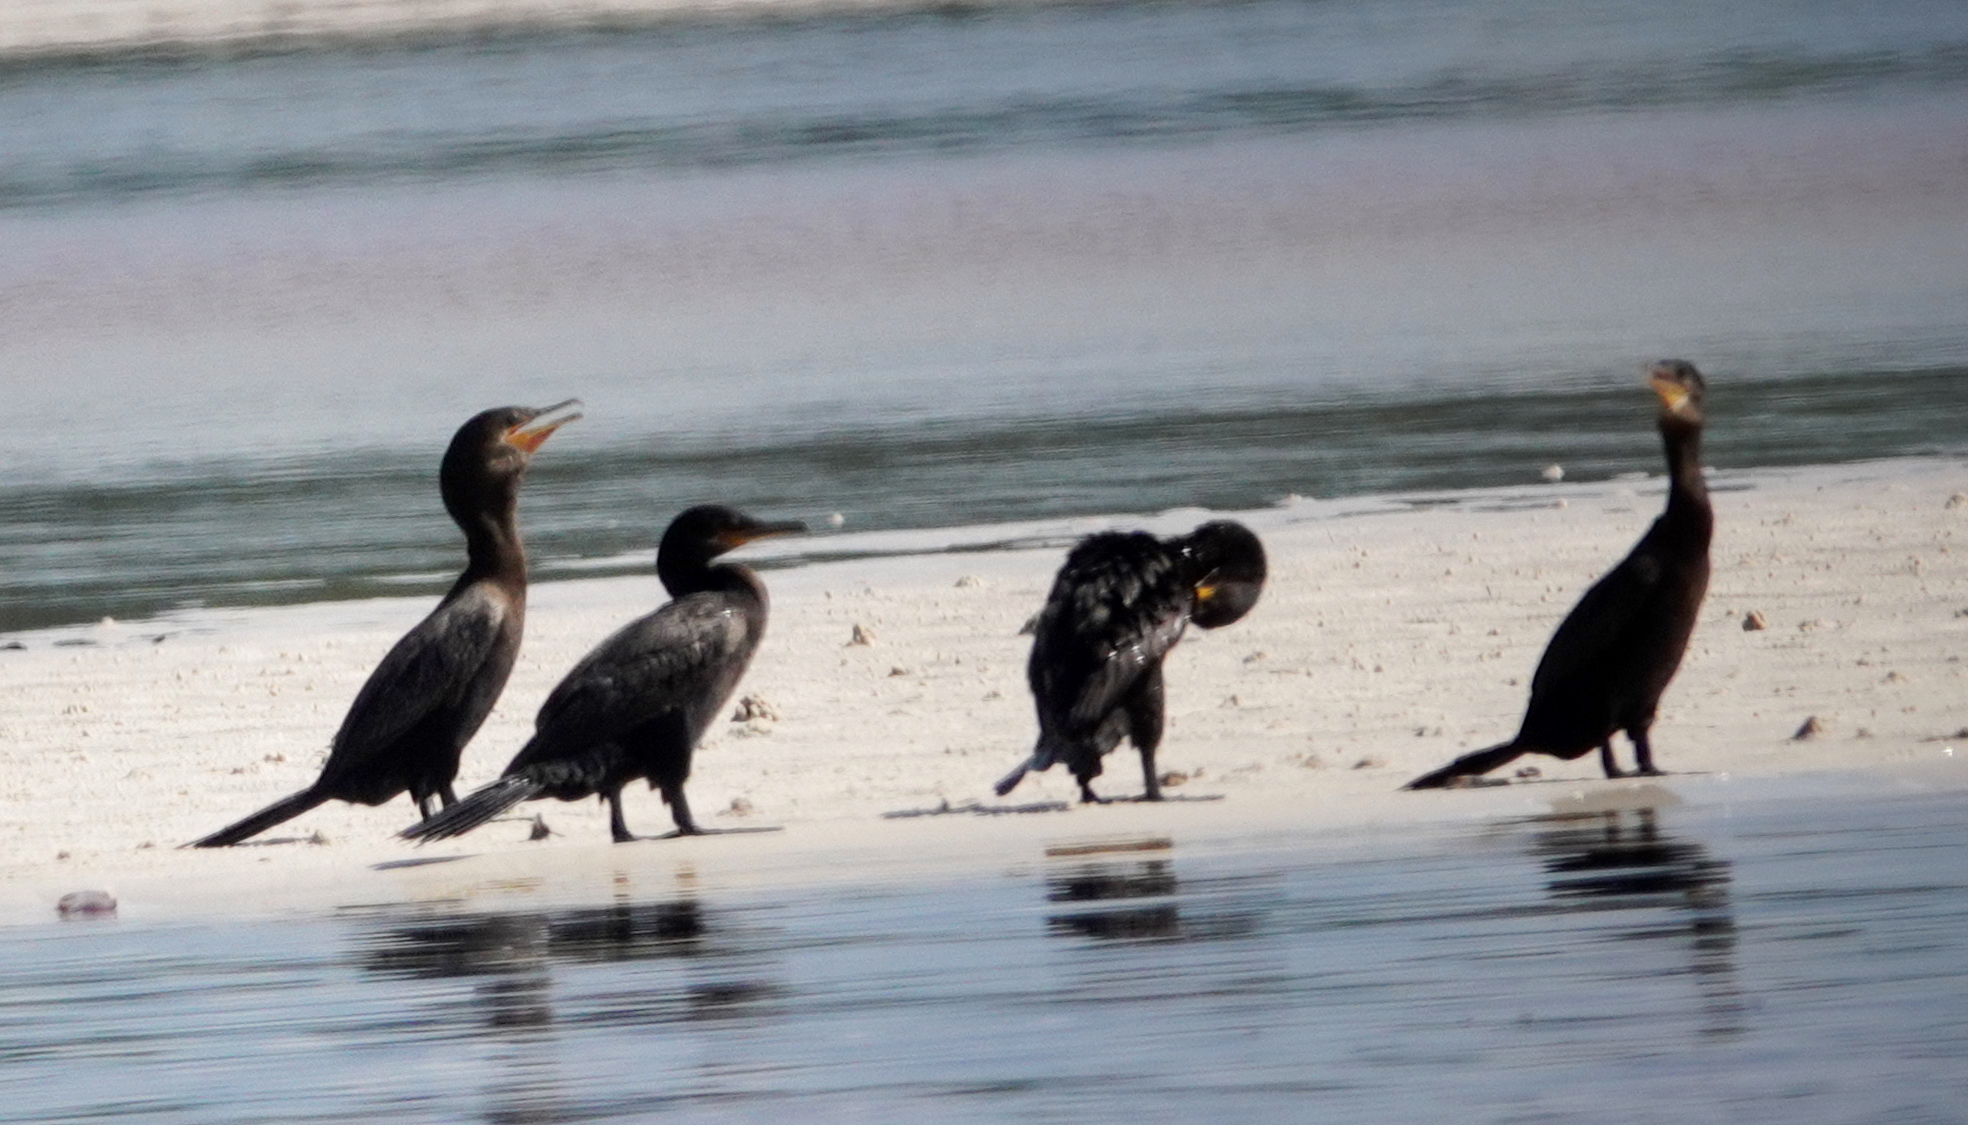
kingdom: Animalia
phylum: Chordata
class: Aves
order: Suliformes
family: Phalacrocoracidae
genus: Phalacrocorax
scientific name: Phalacrocorax brasilianus
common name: Neotropic cormorant
